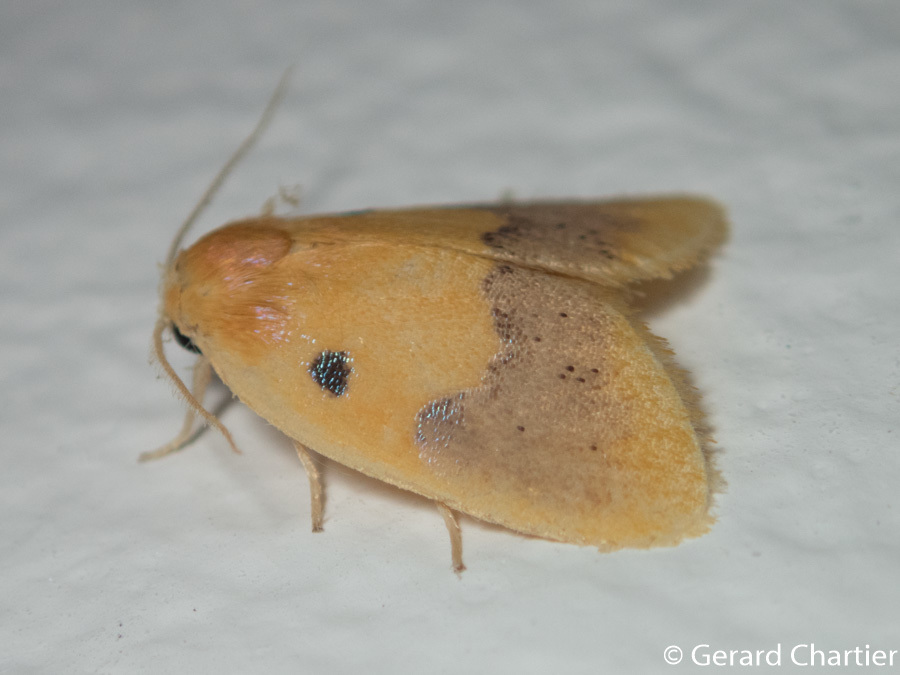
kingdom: Animalia
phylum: Arthropoda
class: Insecta
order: Lepidoptera
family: Erebidae
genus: Cyclomilta
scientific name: Cyclomilta cambodiaca
